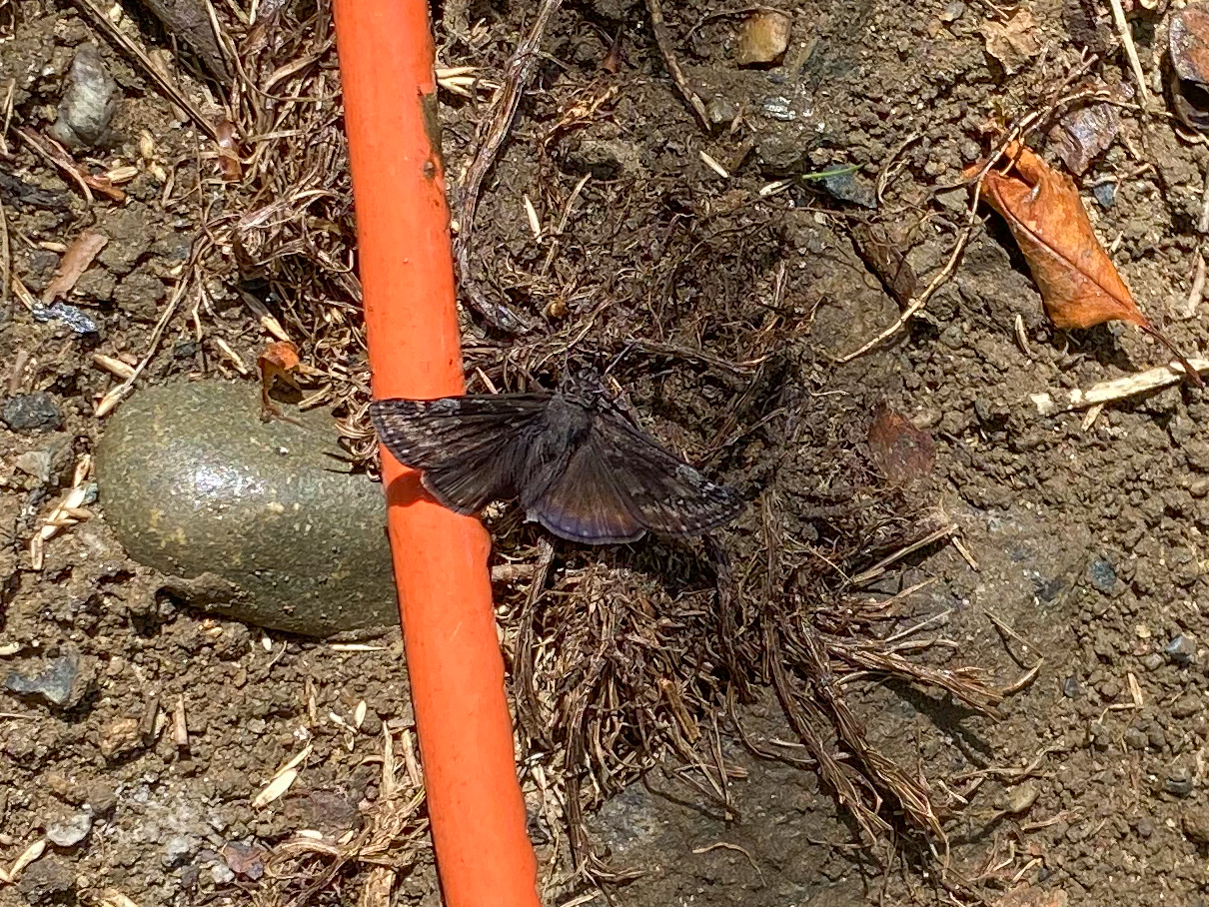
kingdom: Animalia
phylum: Arthropoda
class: Insecta
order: Lepidoptera
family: Hesperiidae
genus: Erynnis
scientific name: Erynnis baptisiae
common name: Wild indigo duskywing
